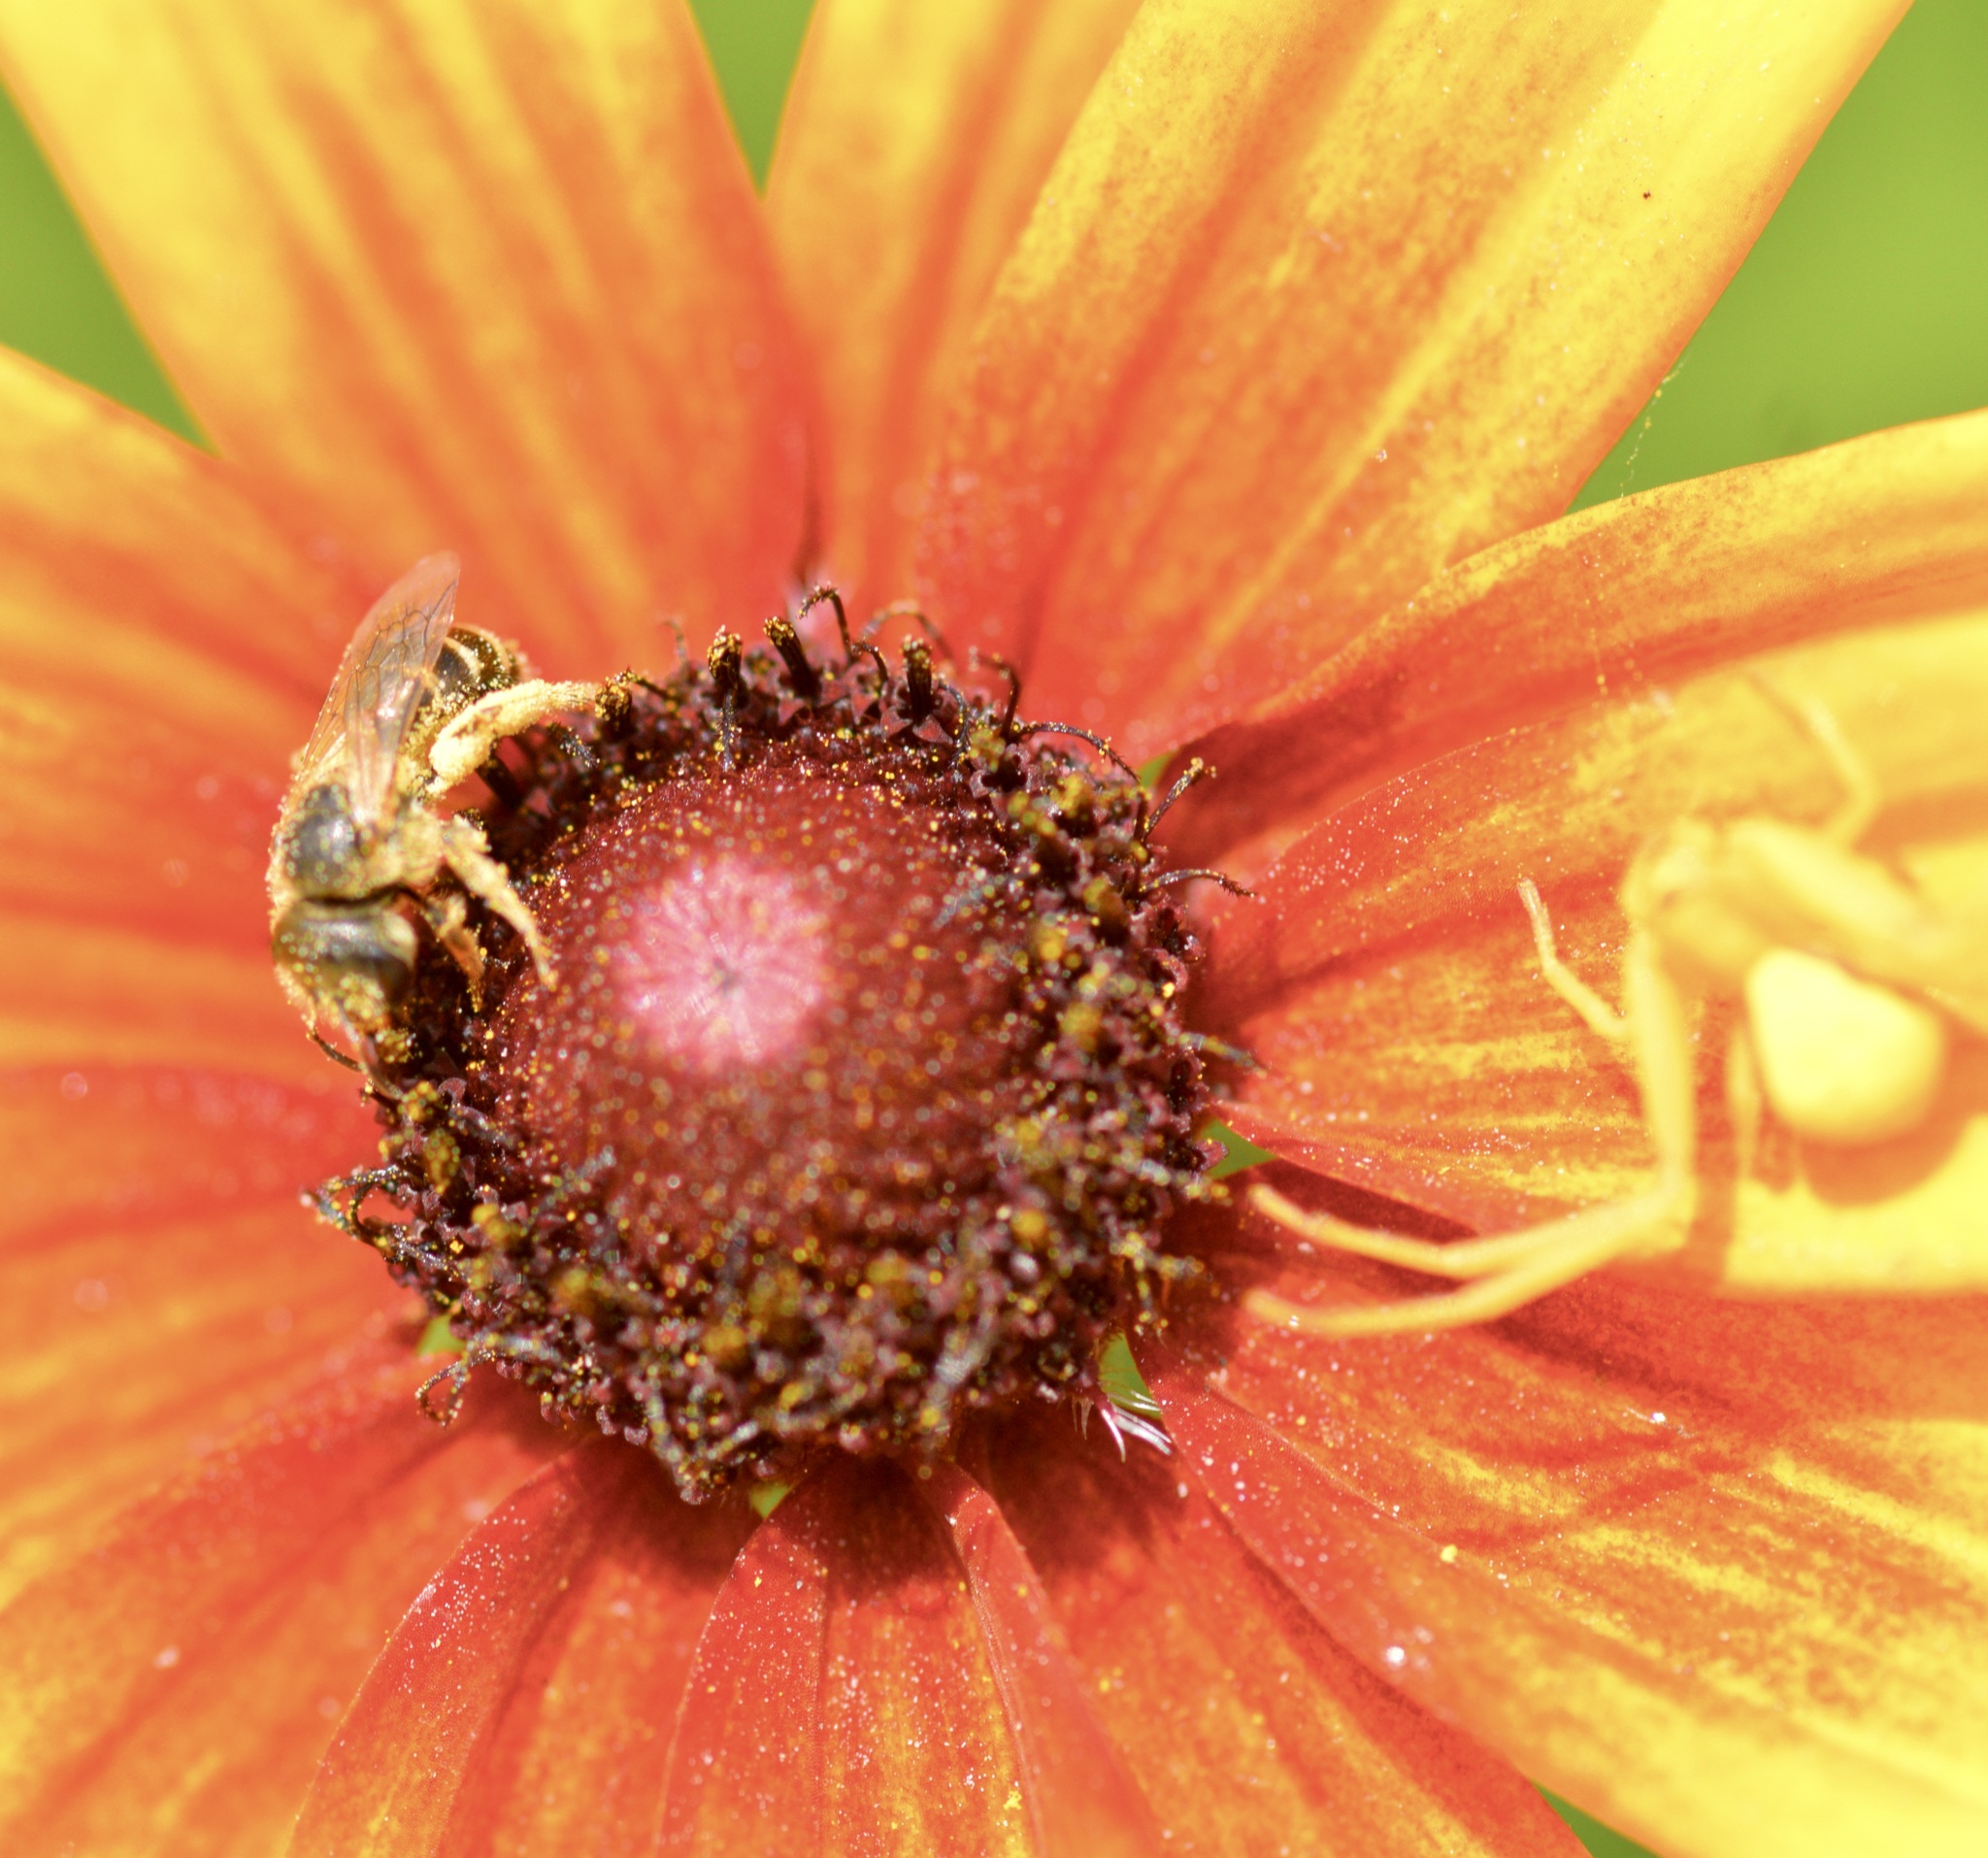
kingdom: Animalia
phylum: Arthropoda
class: Insecta
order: Hymenoptera
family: Halictidae
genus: Halictus
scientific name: Halictus ligatus
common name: Ligated furrow bee
